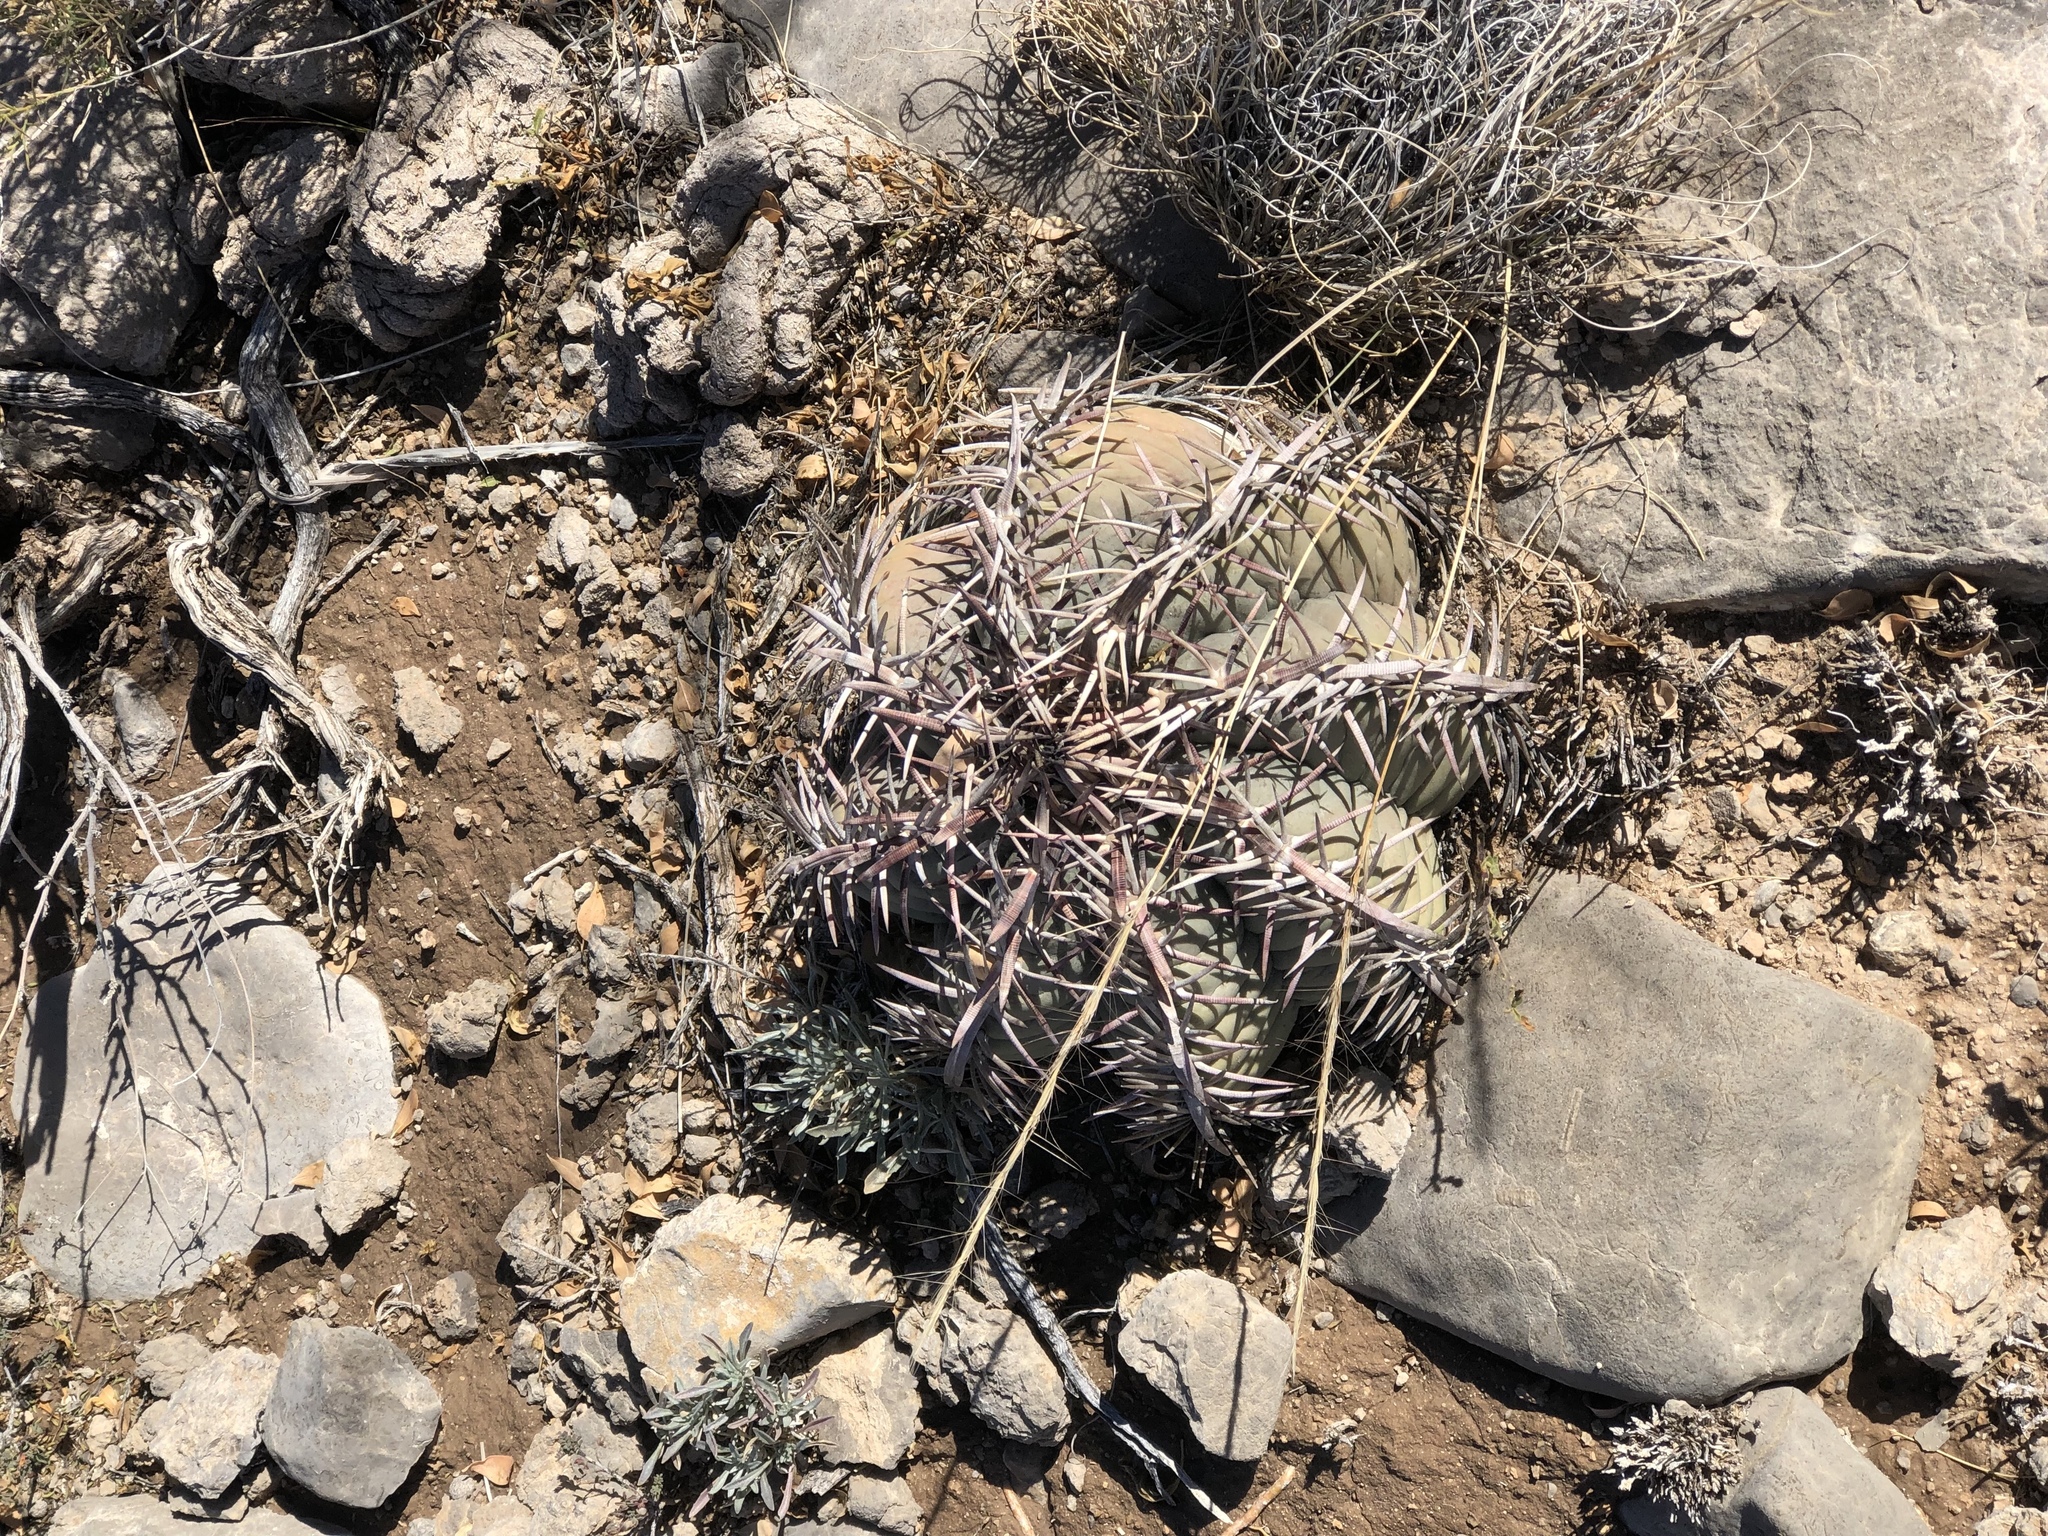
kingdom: Plantae
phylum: Tracheophyta
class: Magnoliopsida
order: Caryophyllales
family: Cactaceae
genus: Echinocactus
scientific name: Echinocactus horizonthalonius
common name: Devilshead
